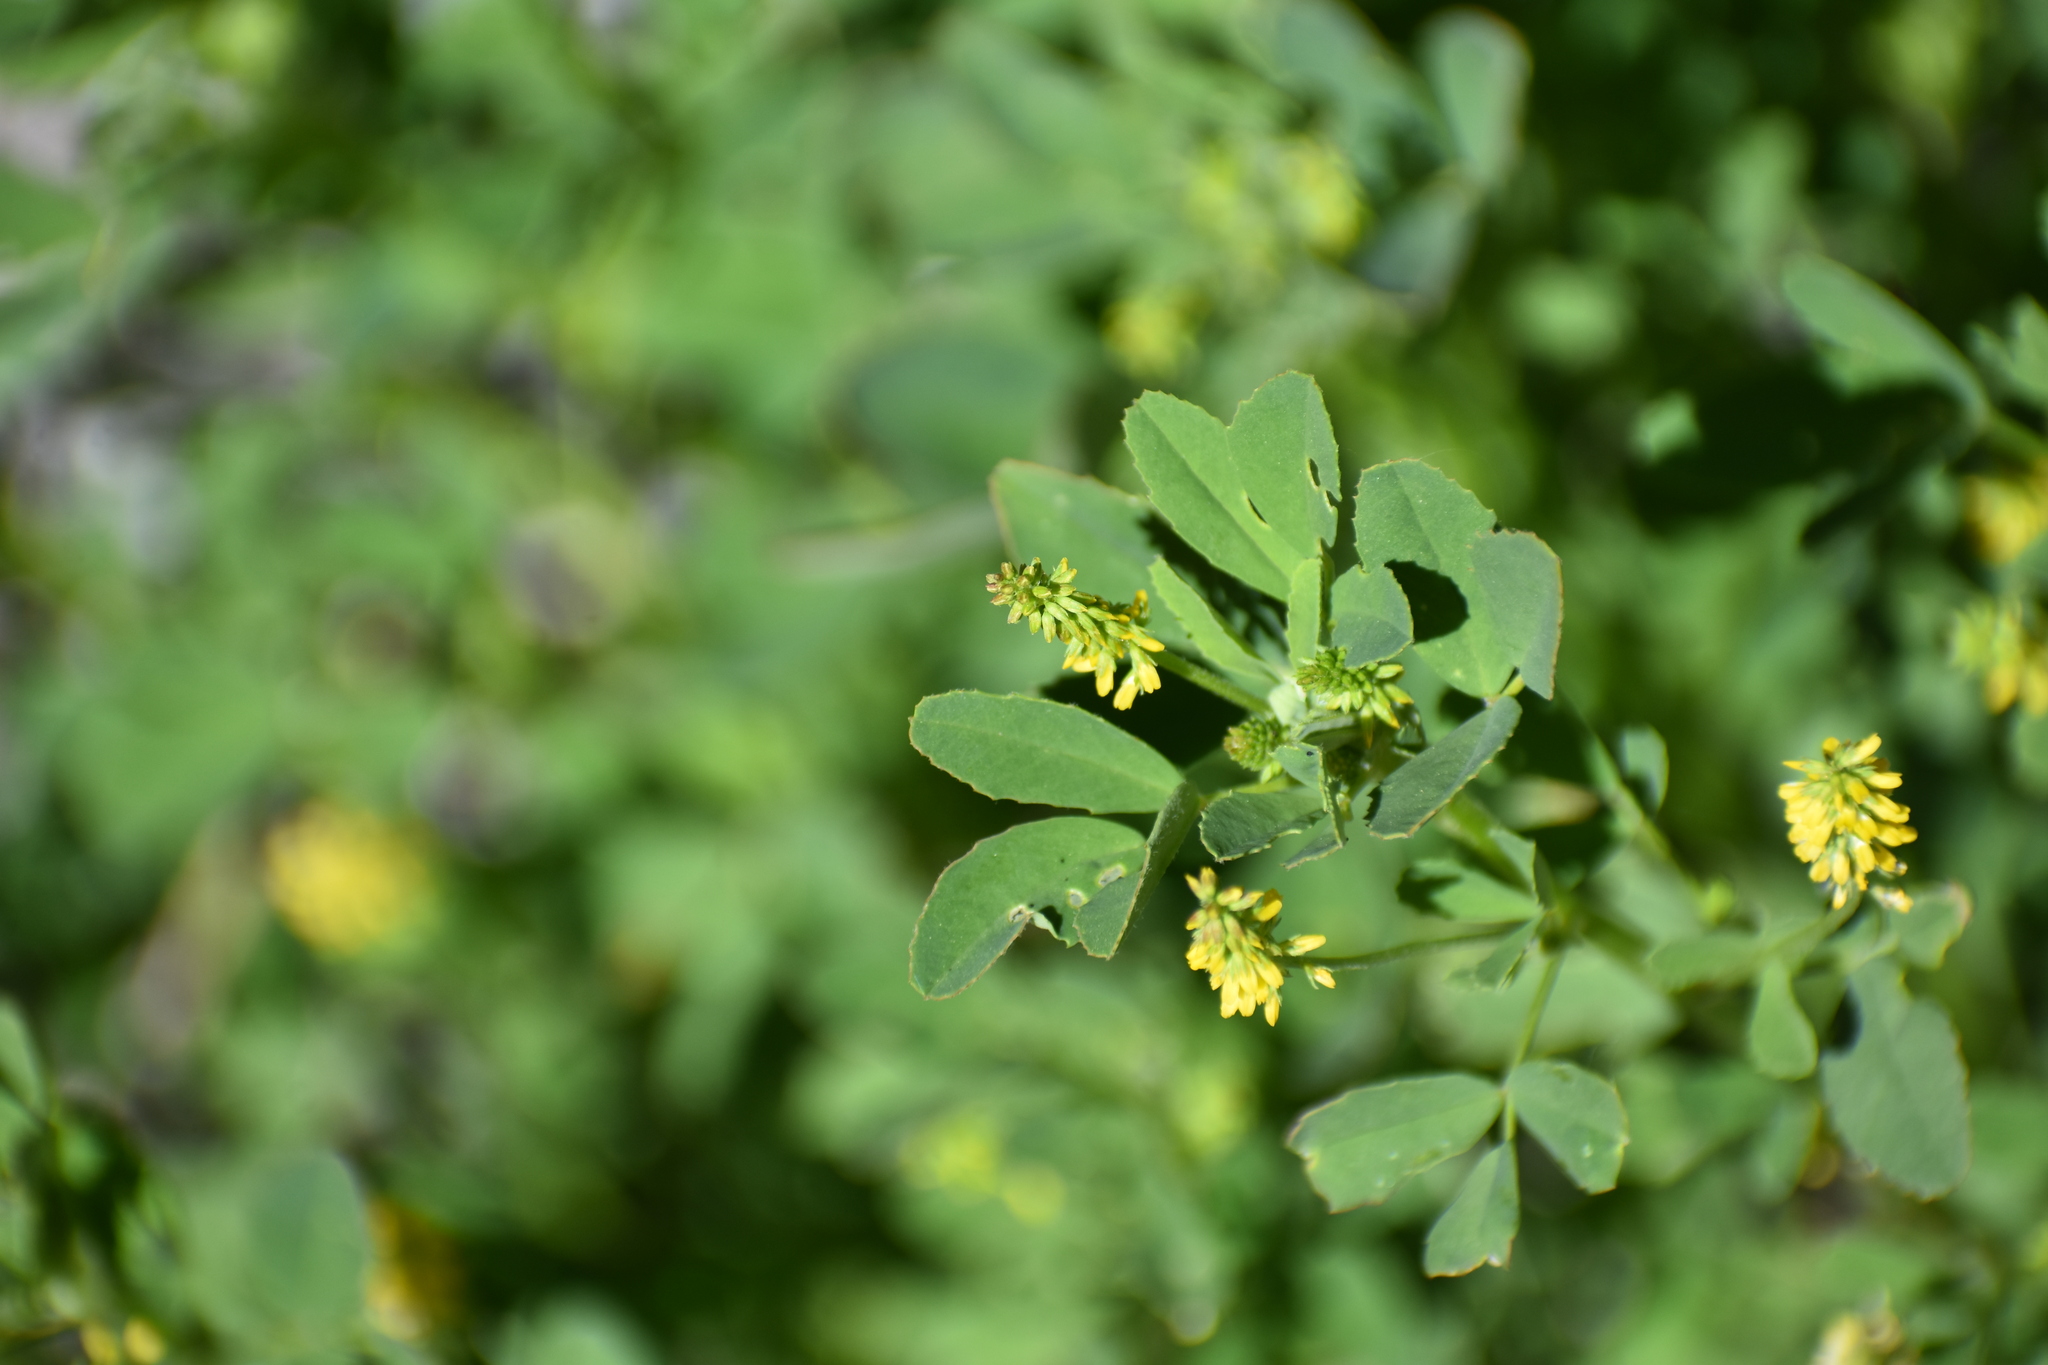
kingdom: Plantae
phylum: Tracheophyta
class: Magnoliopsida
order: Fabales
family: Fabaceae
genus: Melilotus
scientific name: Melilotus indicus
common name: Small melilot
